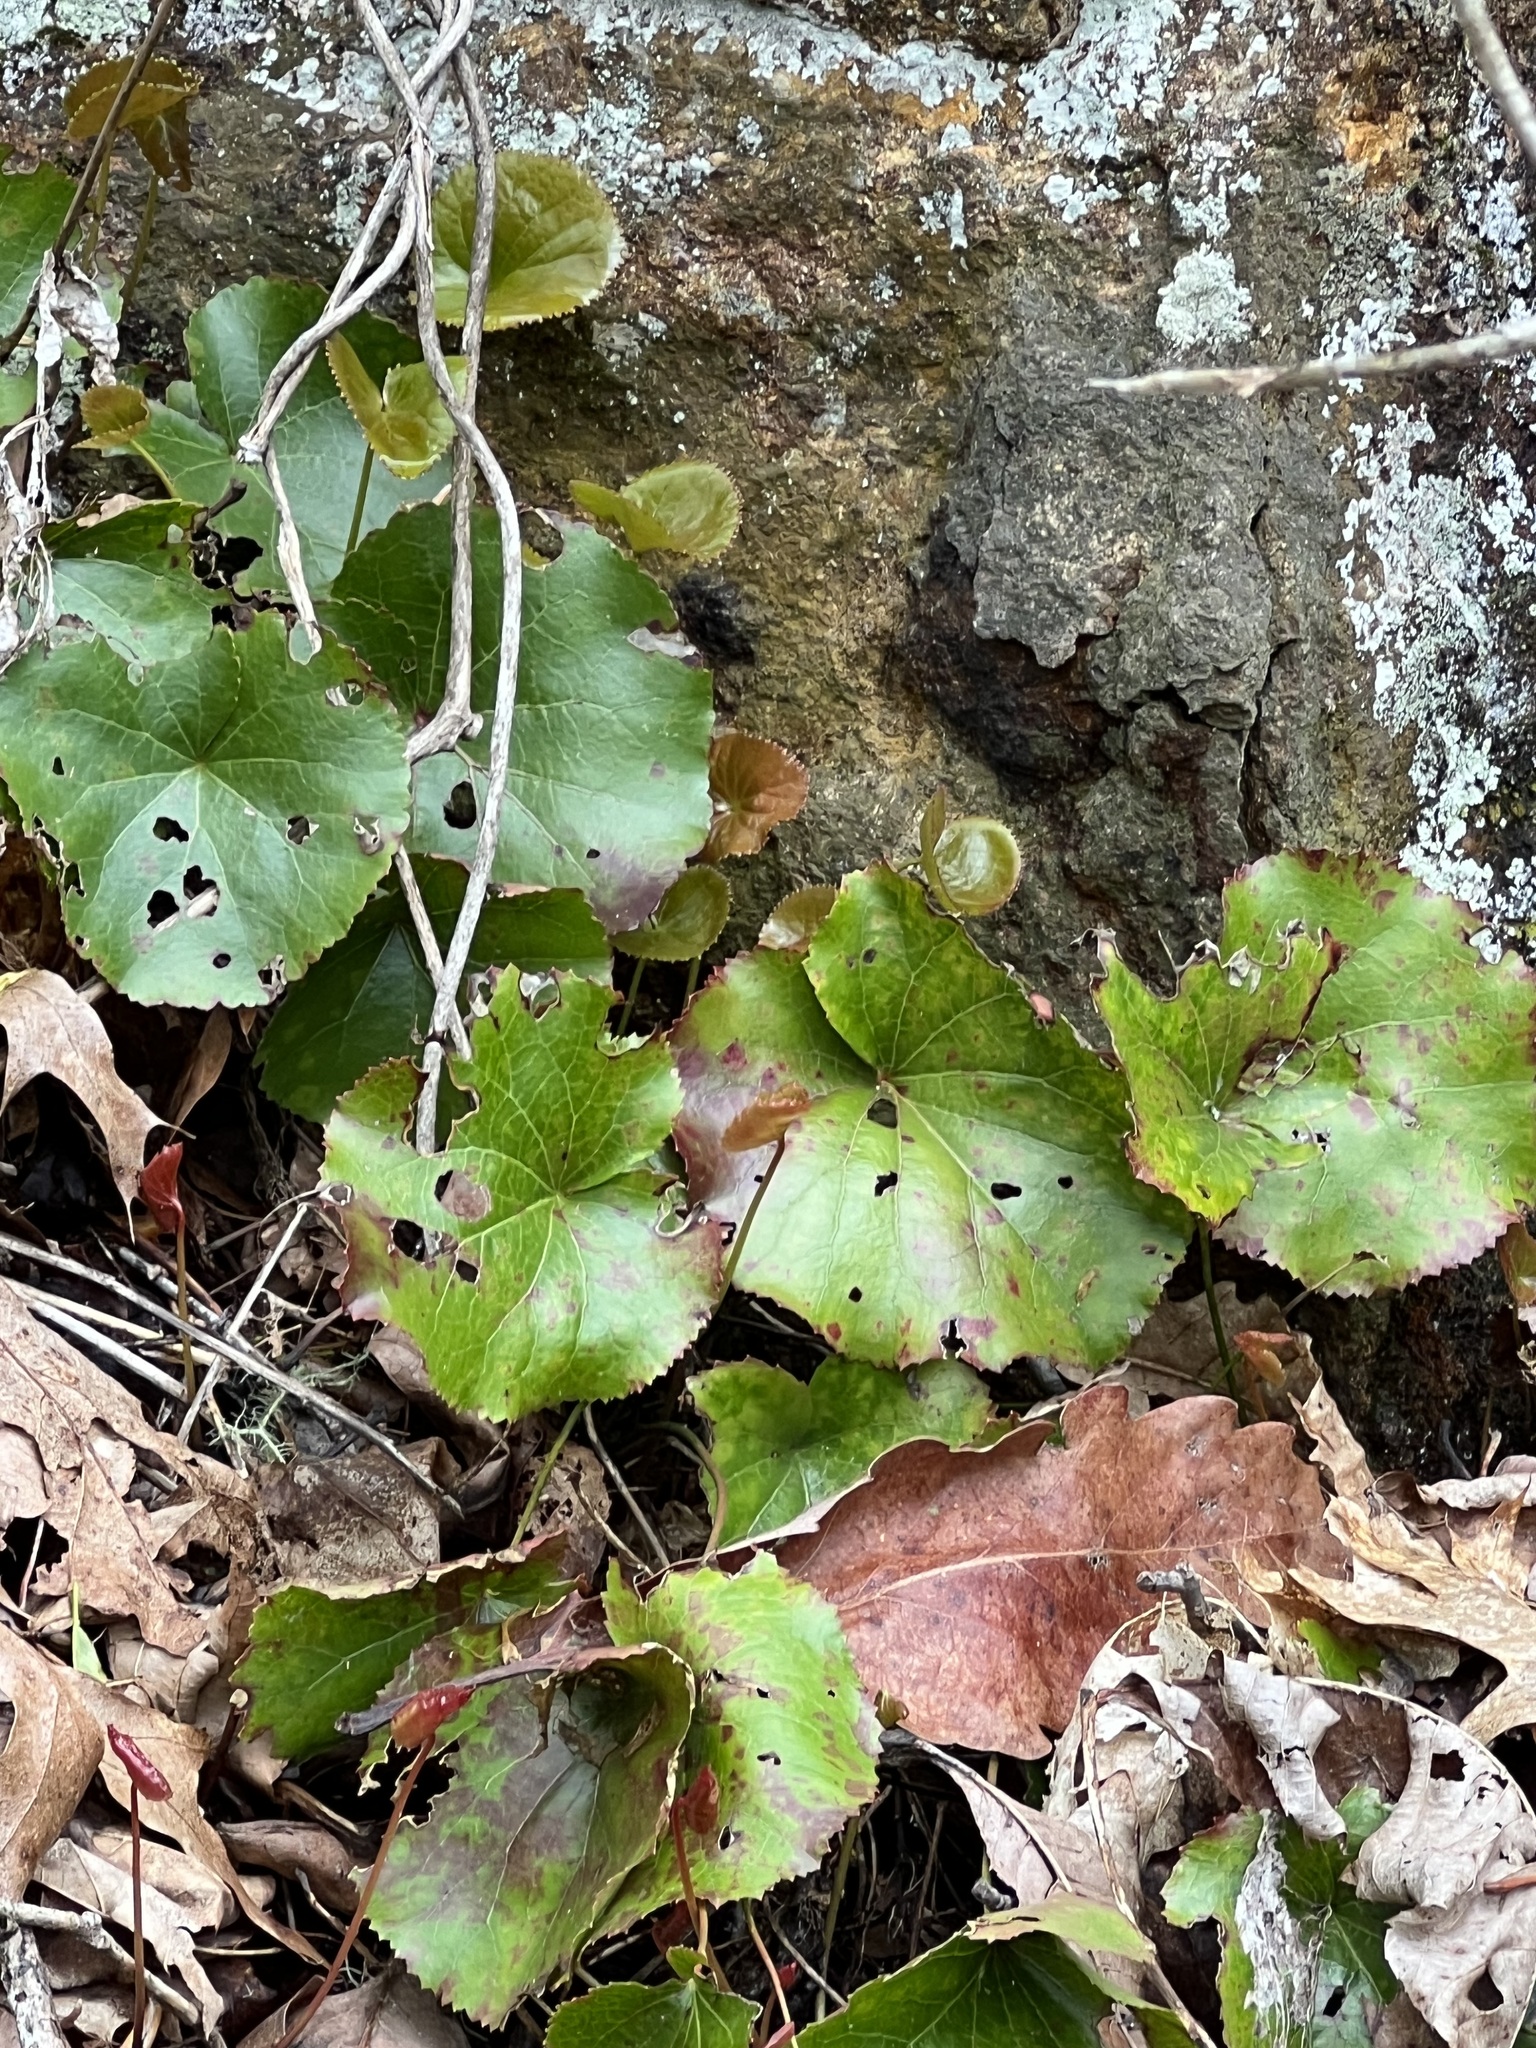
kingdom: Plantae
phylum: Tracheophyta
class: Magnoliopsida
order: Ericales
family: Diapensiaceae
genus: Galax
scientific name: Galax urceolata
